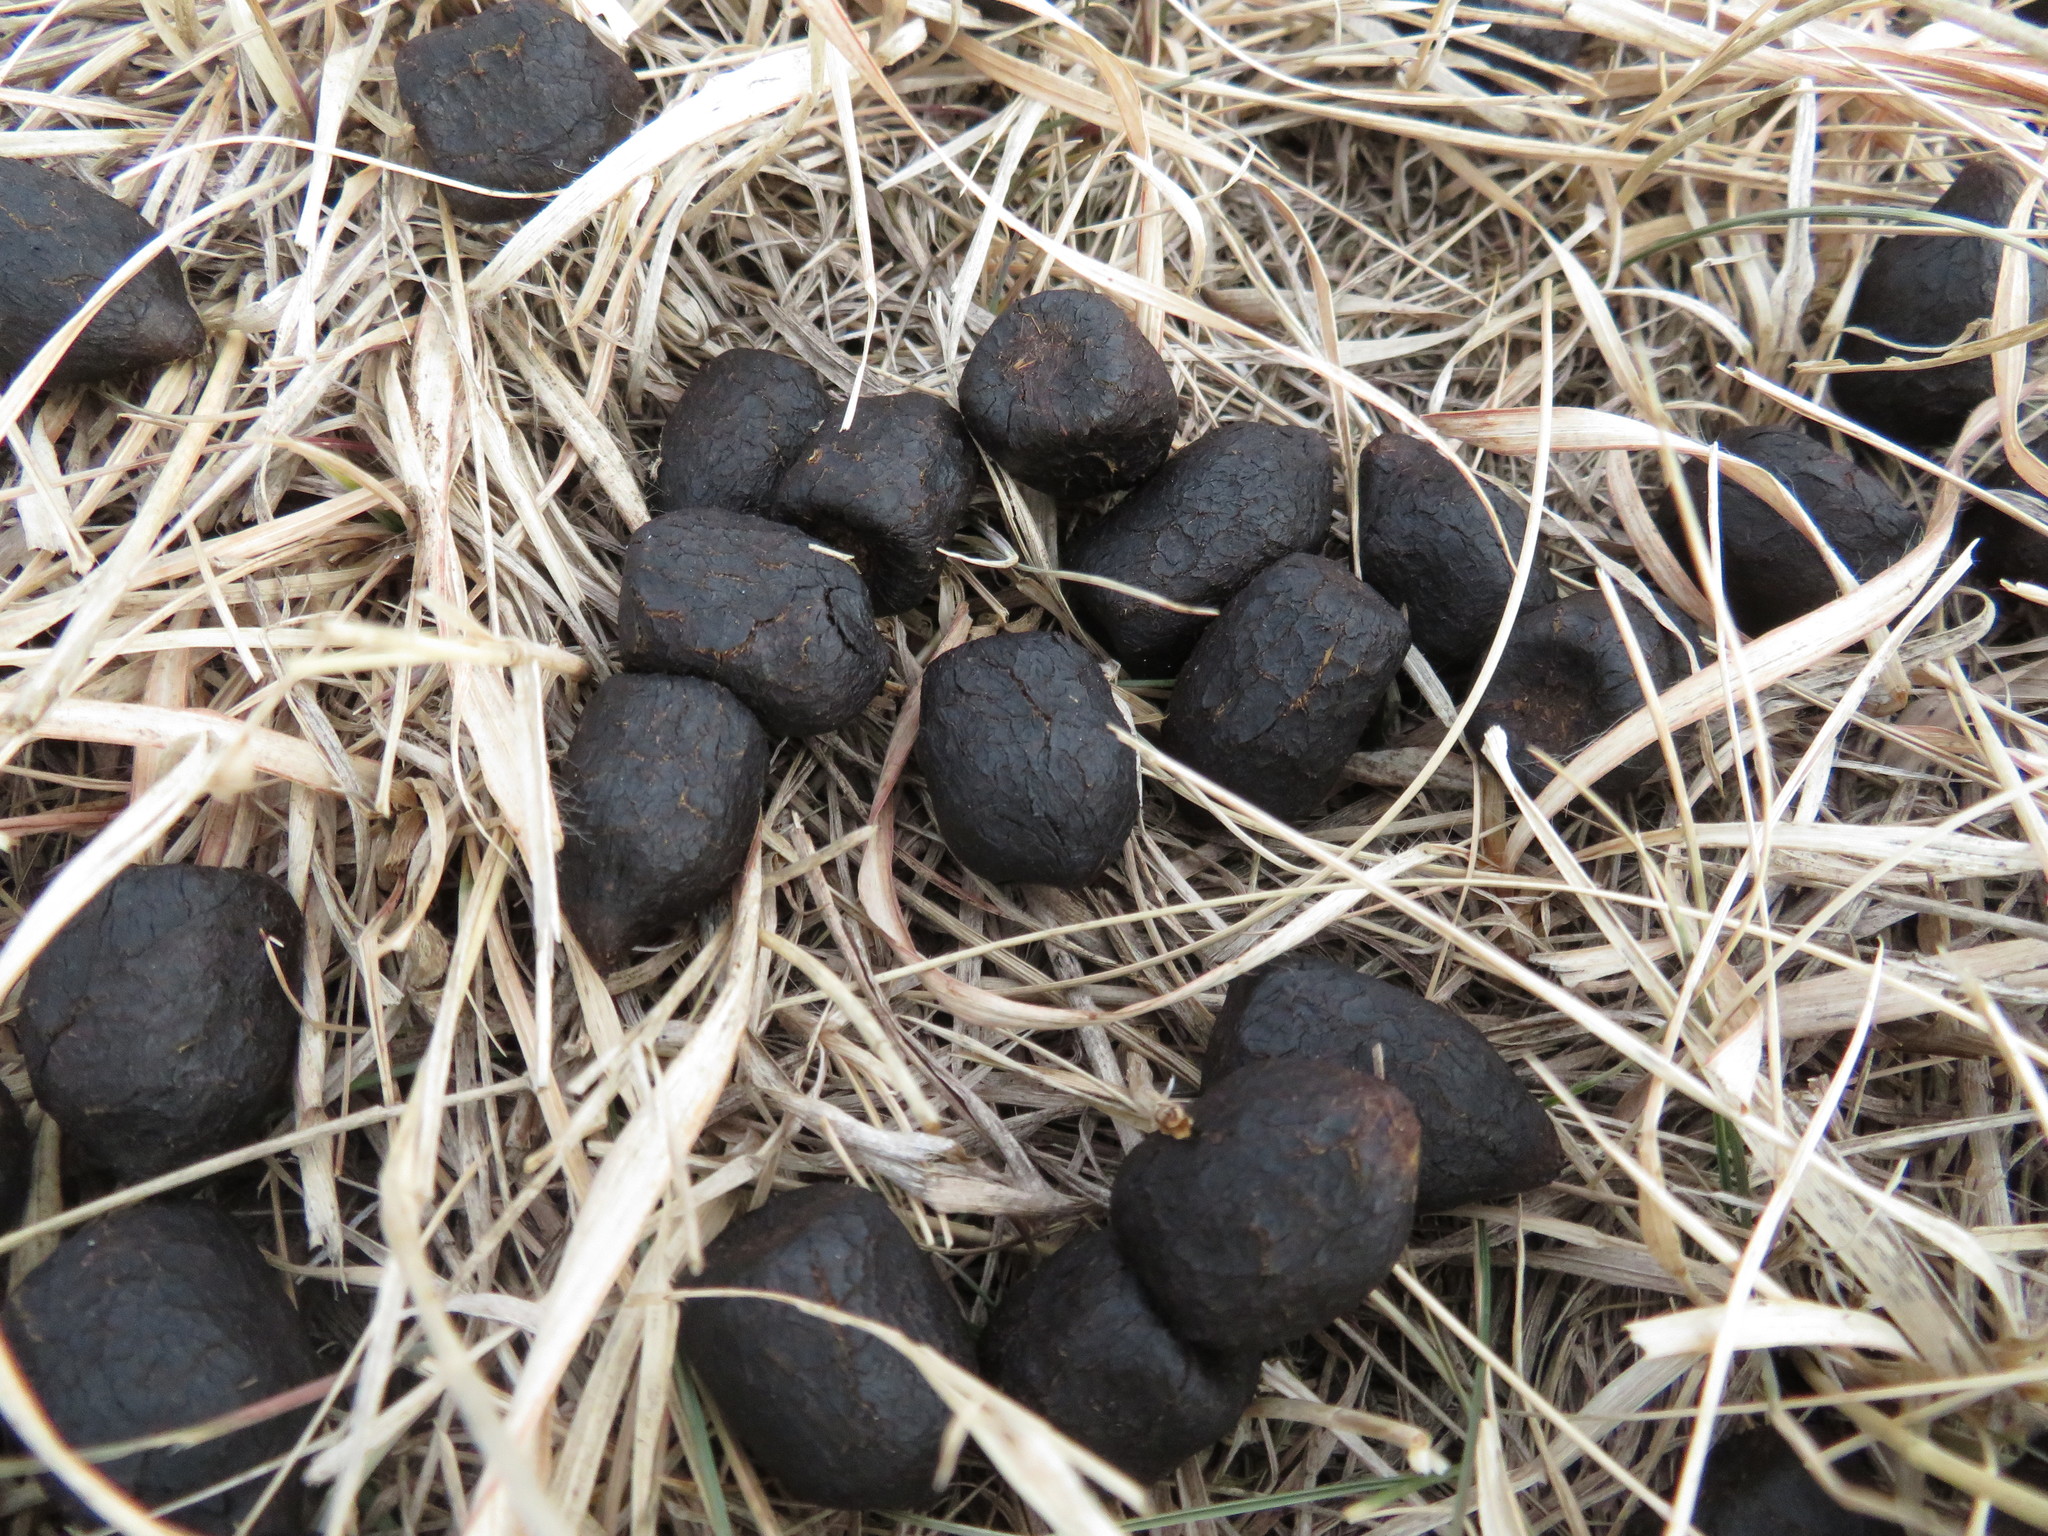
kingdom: Animalia
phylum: Chordata
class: Mammalia
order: Artiodactyla
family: Cervidae
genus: Cervus
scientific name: Cervus elaphus
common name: Red deer
